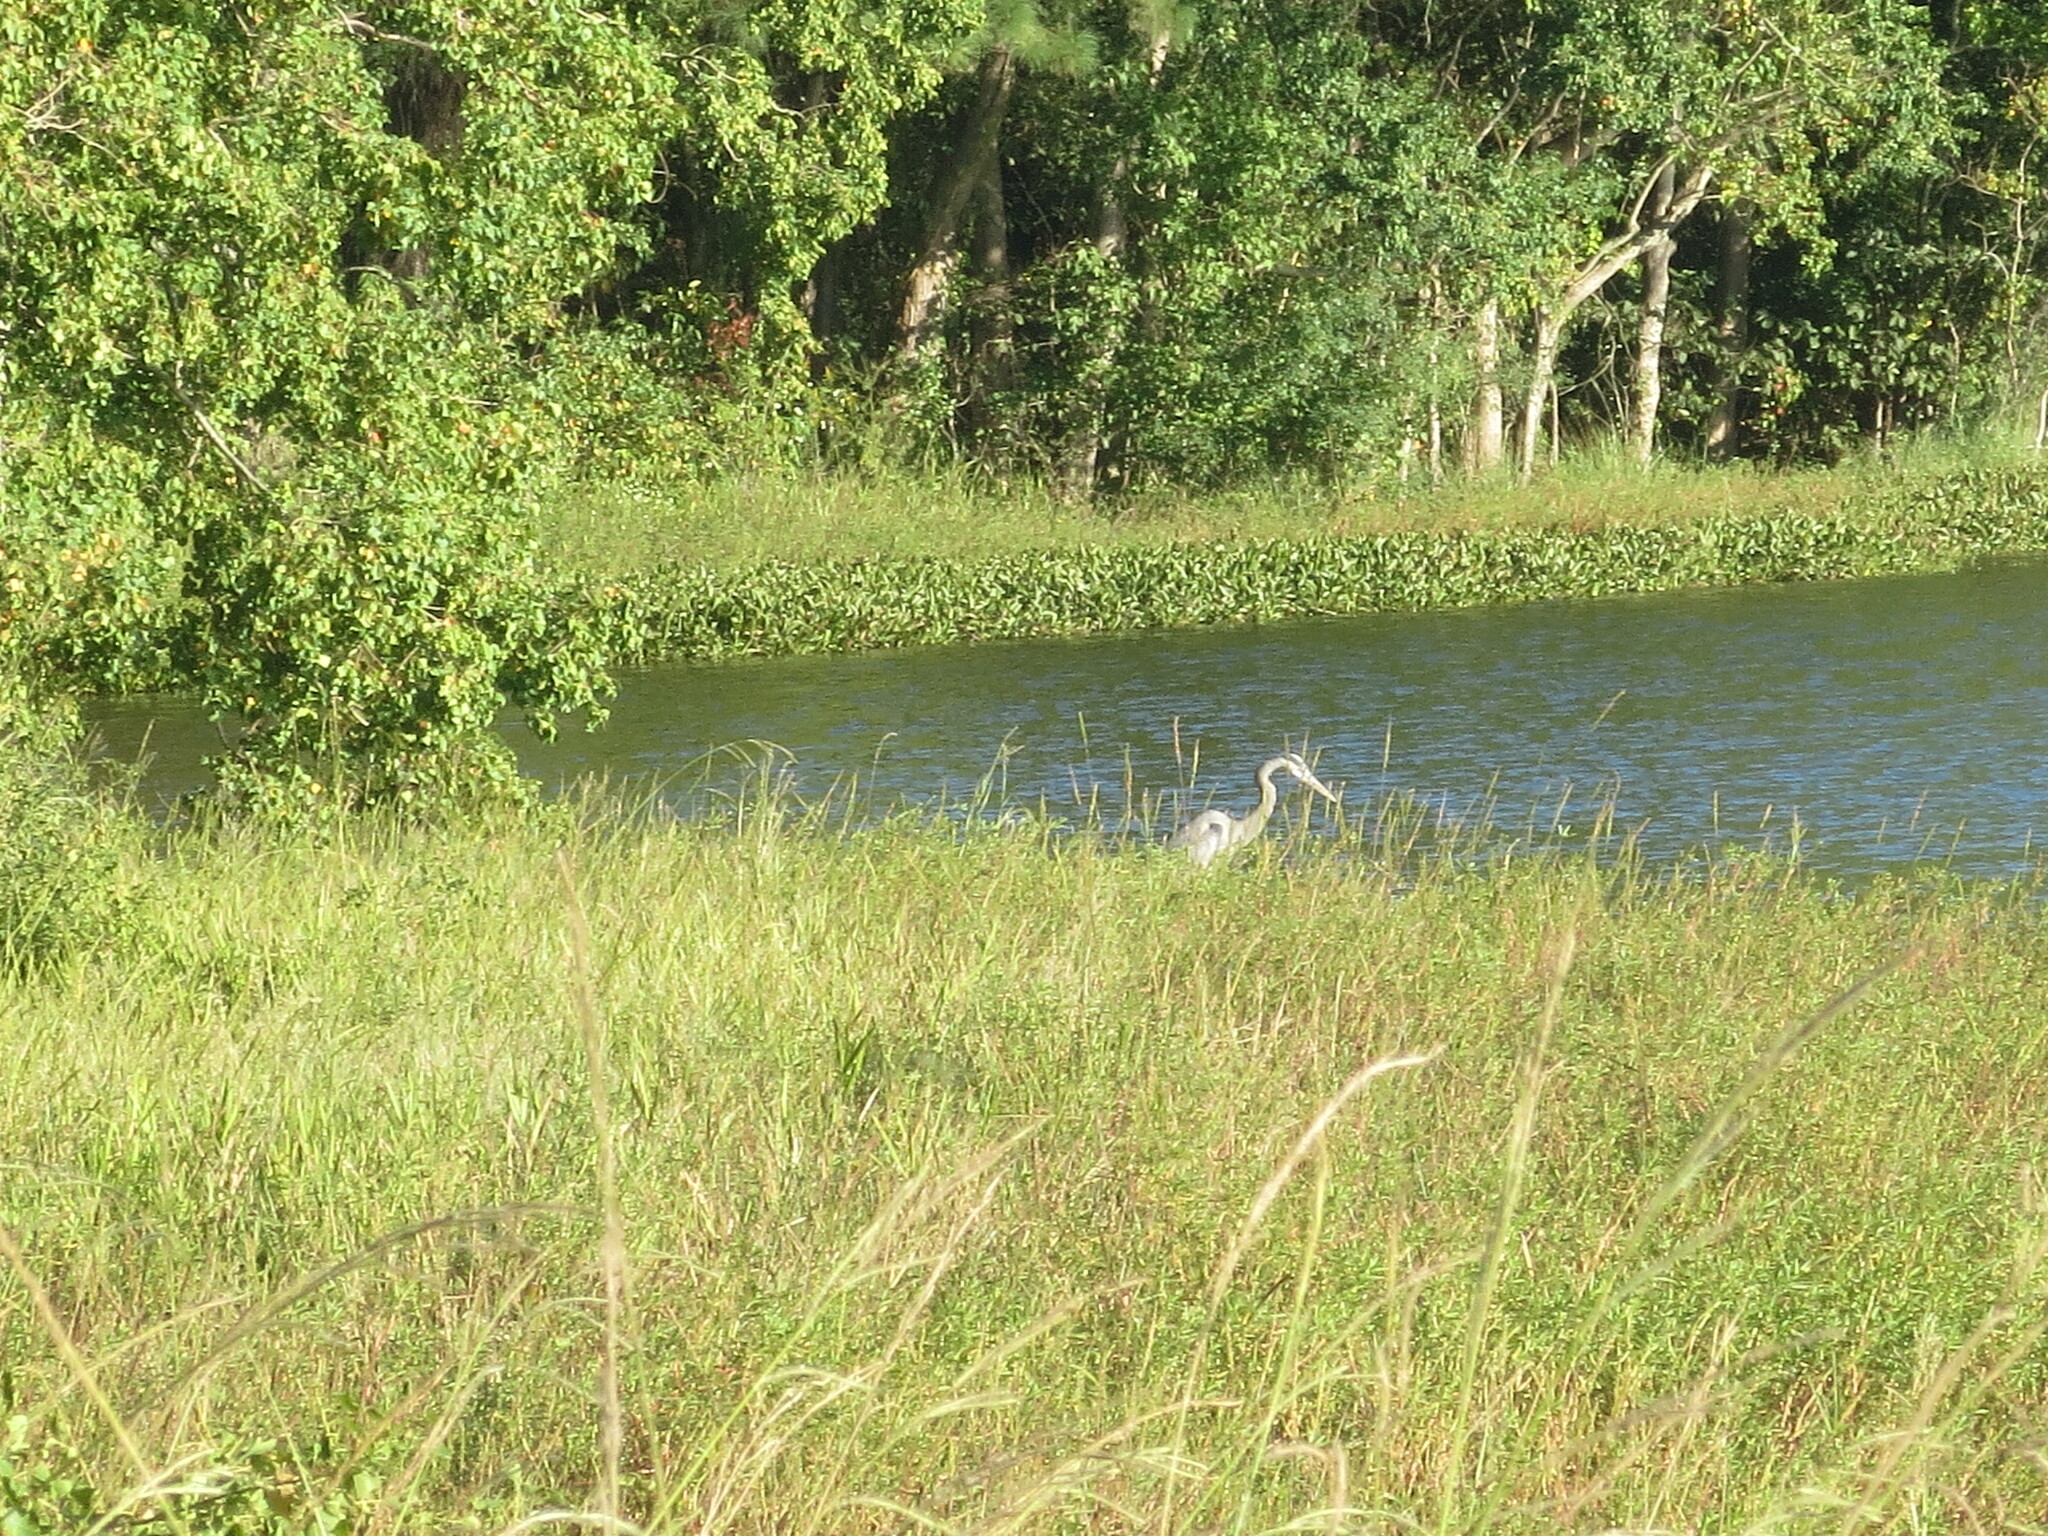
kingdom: Animalia
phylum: Chordata
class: Aves
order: Pelecaniformes
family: Ardeidae
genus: Ardea
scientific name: Ardea herodias
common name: Great blue heron
